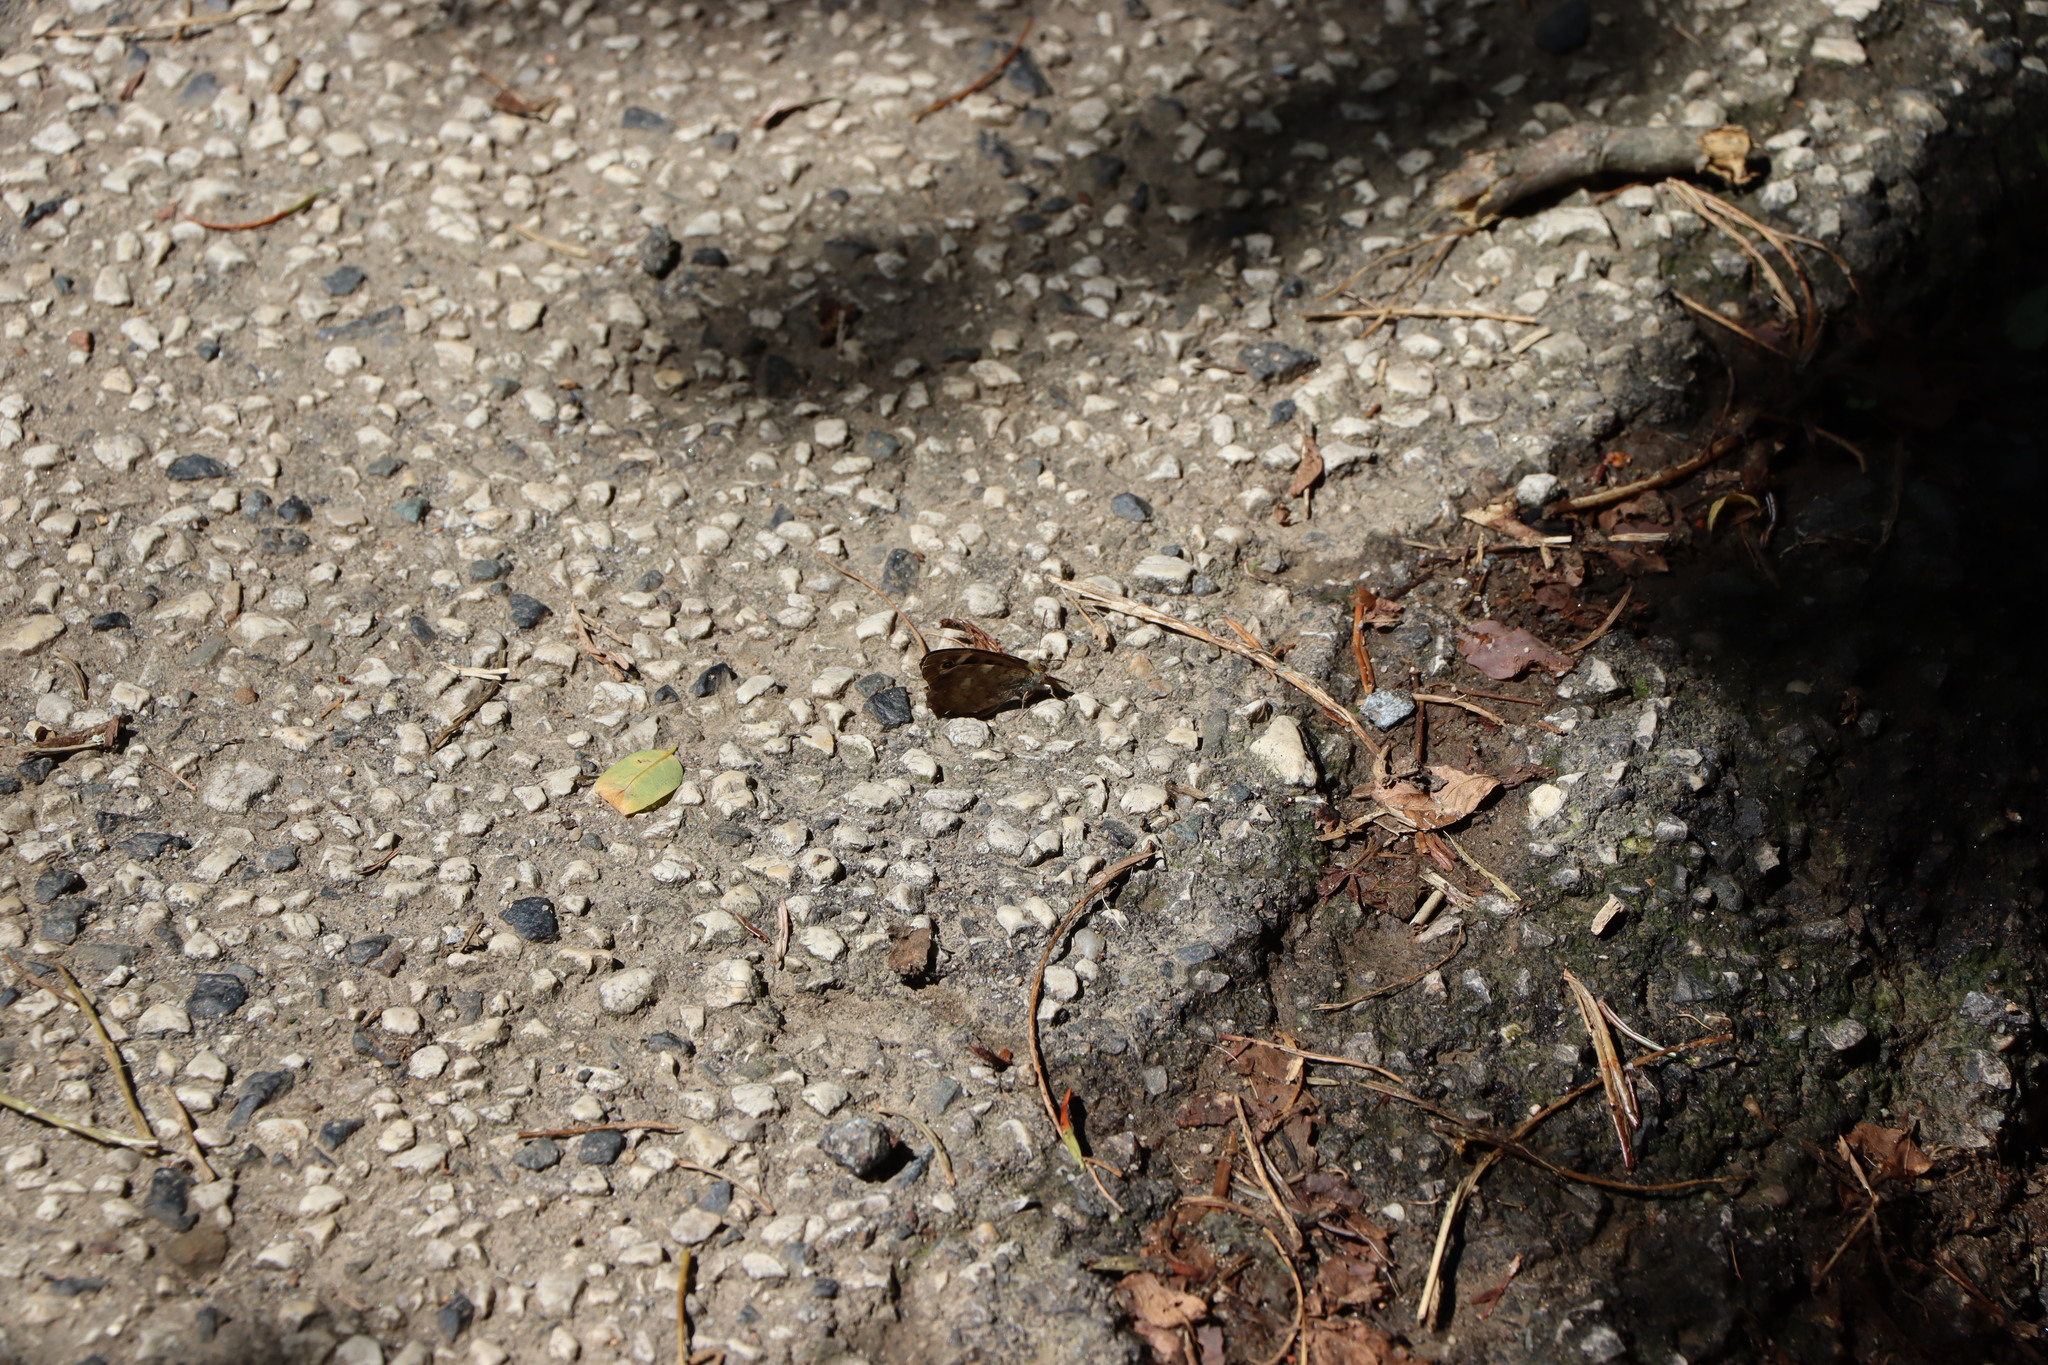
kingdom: Animalia
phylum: Arthropoda
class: Insecta
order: Lepidoptera
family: Nymphalidae
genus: Pararge
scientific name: Pararge aegeria
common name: Speckled wood
